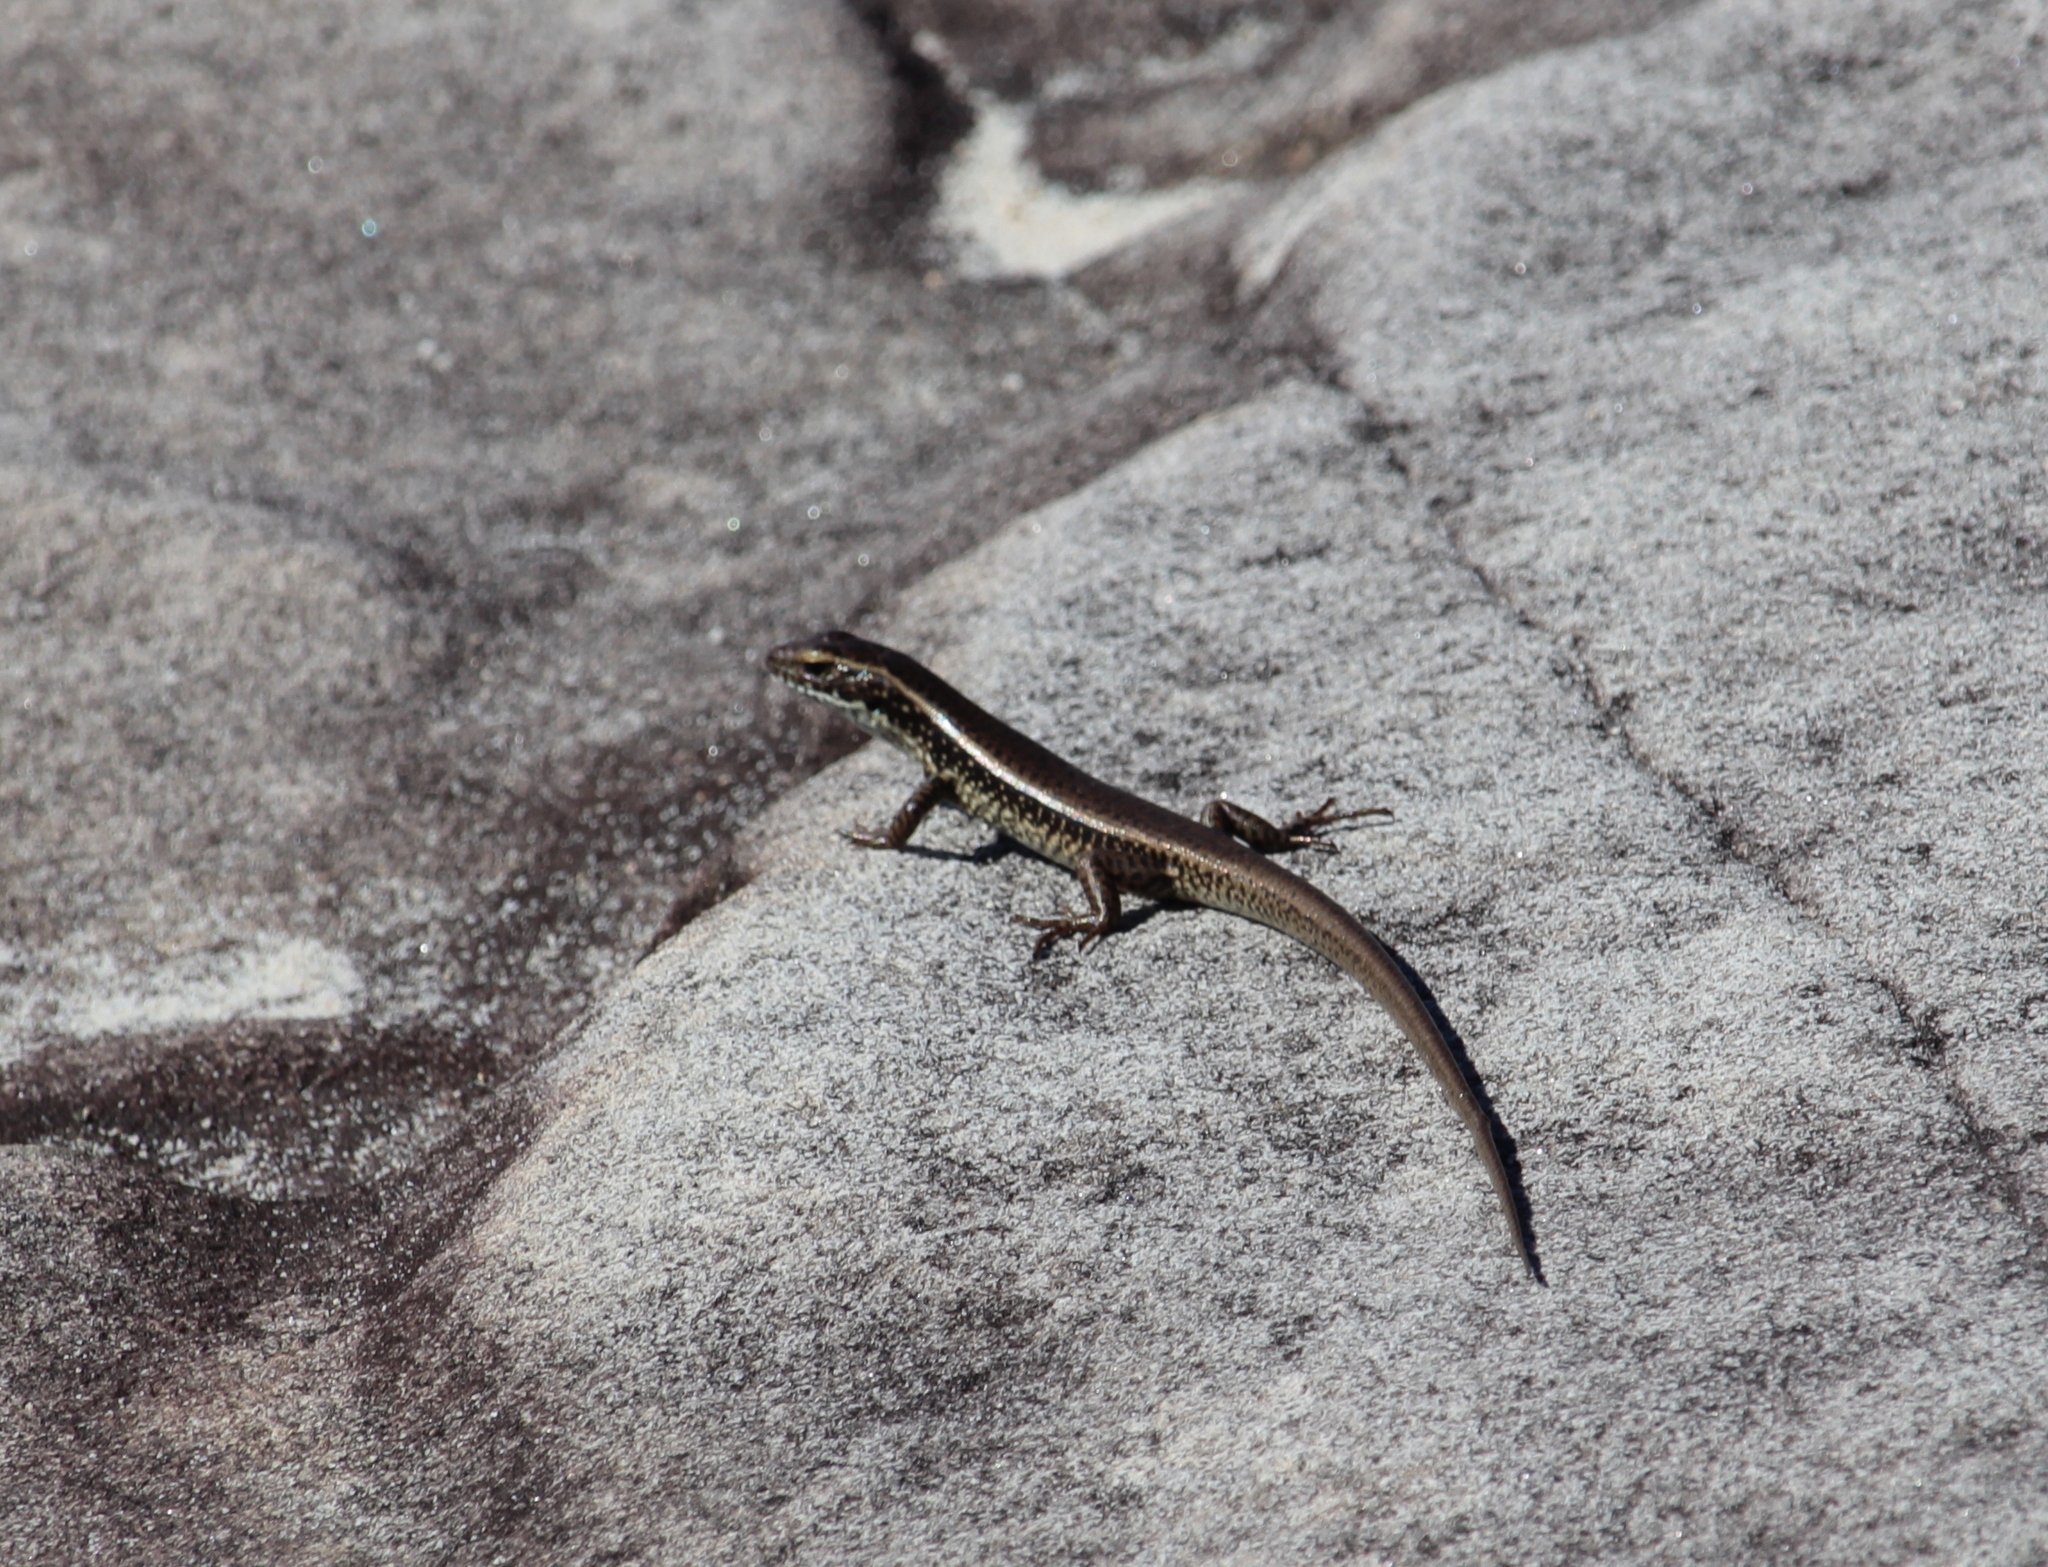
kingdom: Animalia
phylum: Chordata
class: Squamata
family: Scincidae
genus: Eulamprus
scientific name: Eulamprus quoyii
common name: Eastern water skink
